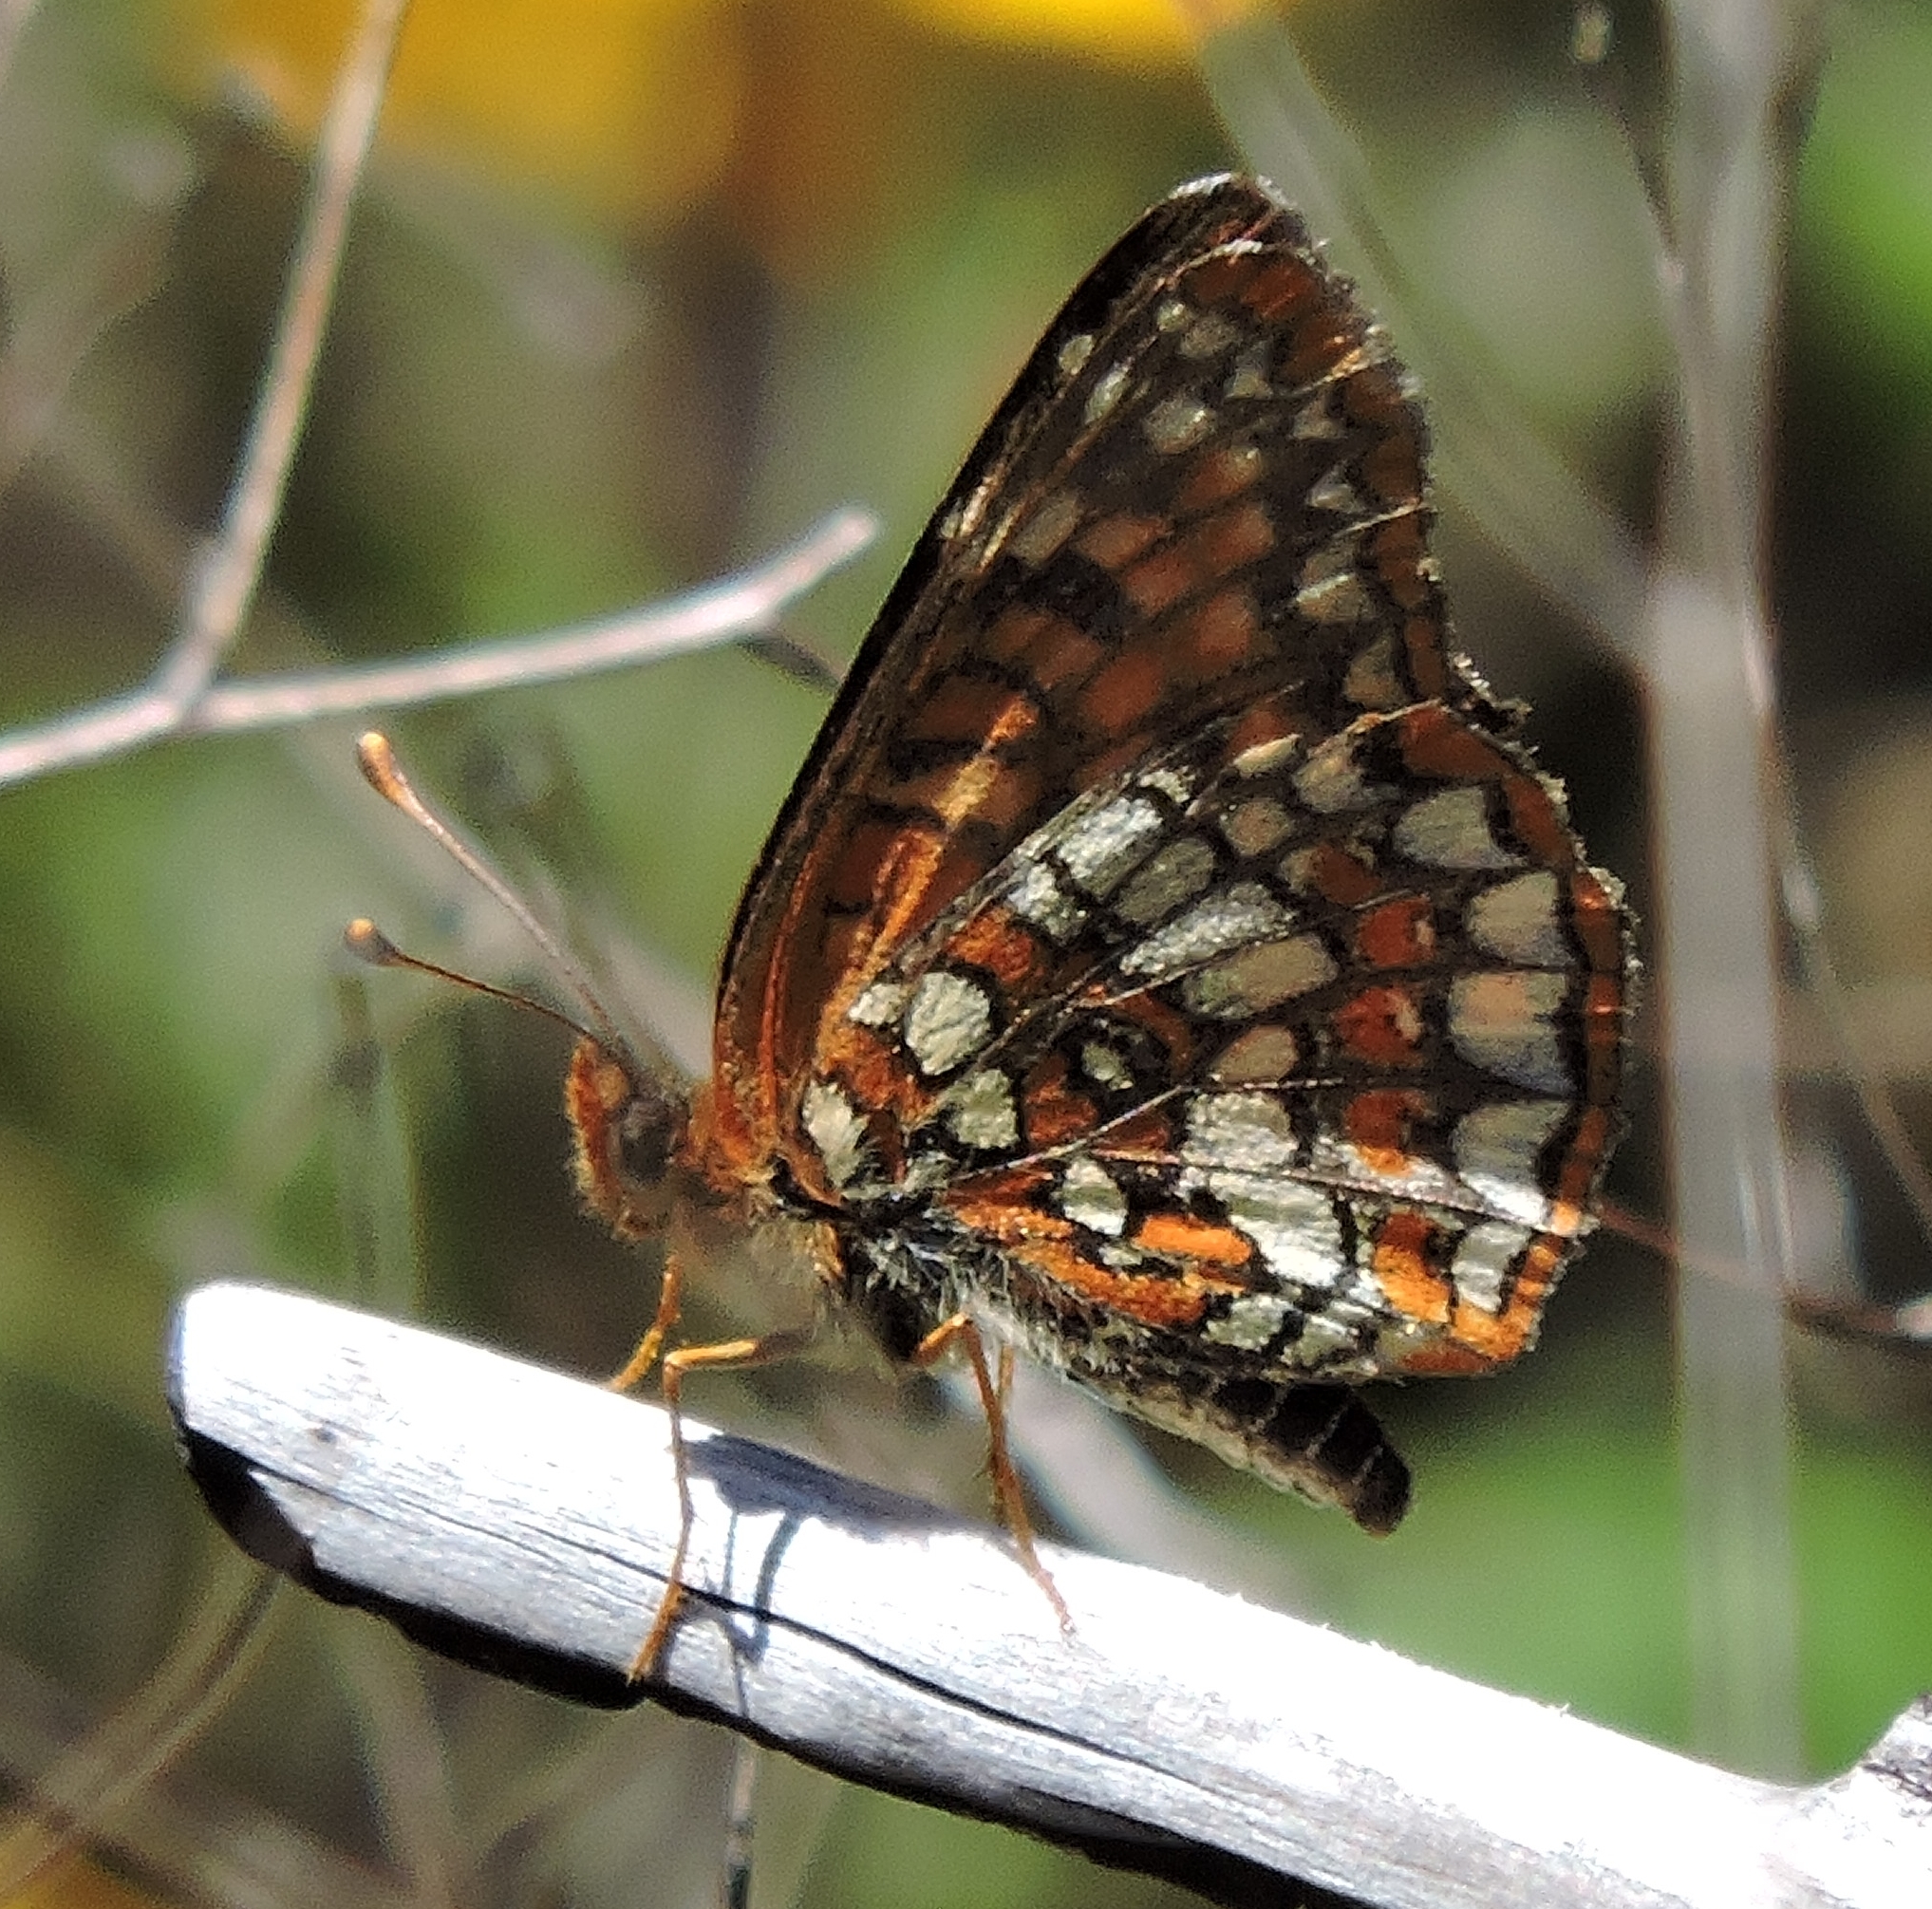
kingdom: Animalia
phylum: Arthropoda
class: Insecta
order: Lepidoptera
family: Nymphalidae
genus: Chlosyne
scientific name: Chlosyne palla
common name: Northern checkerspot
